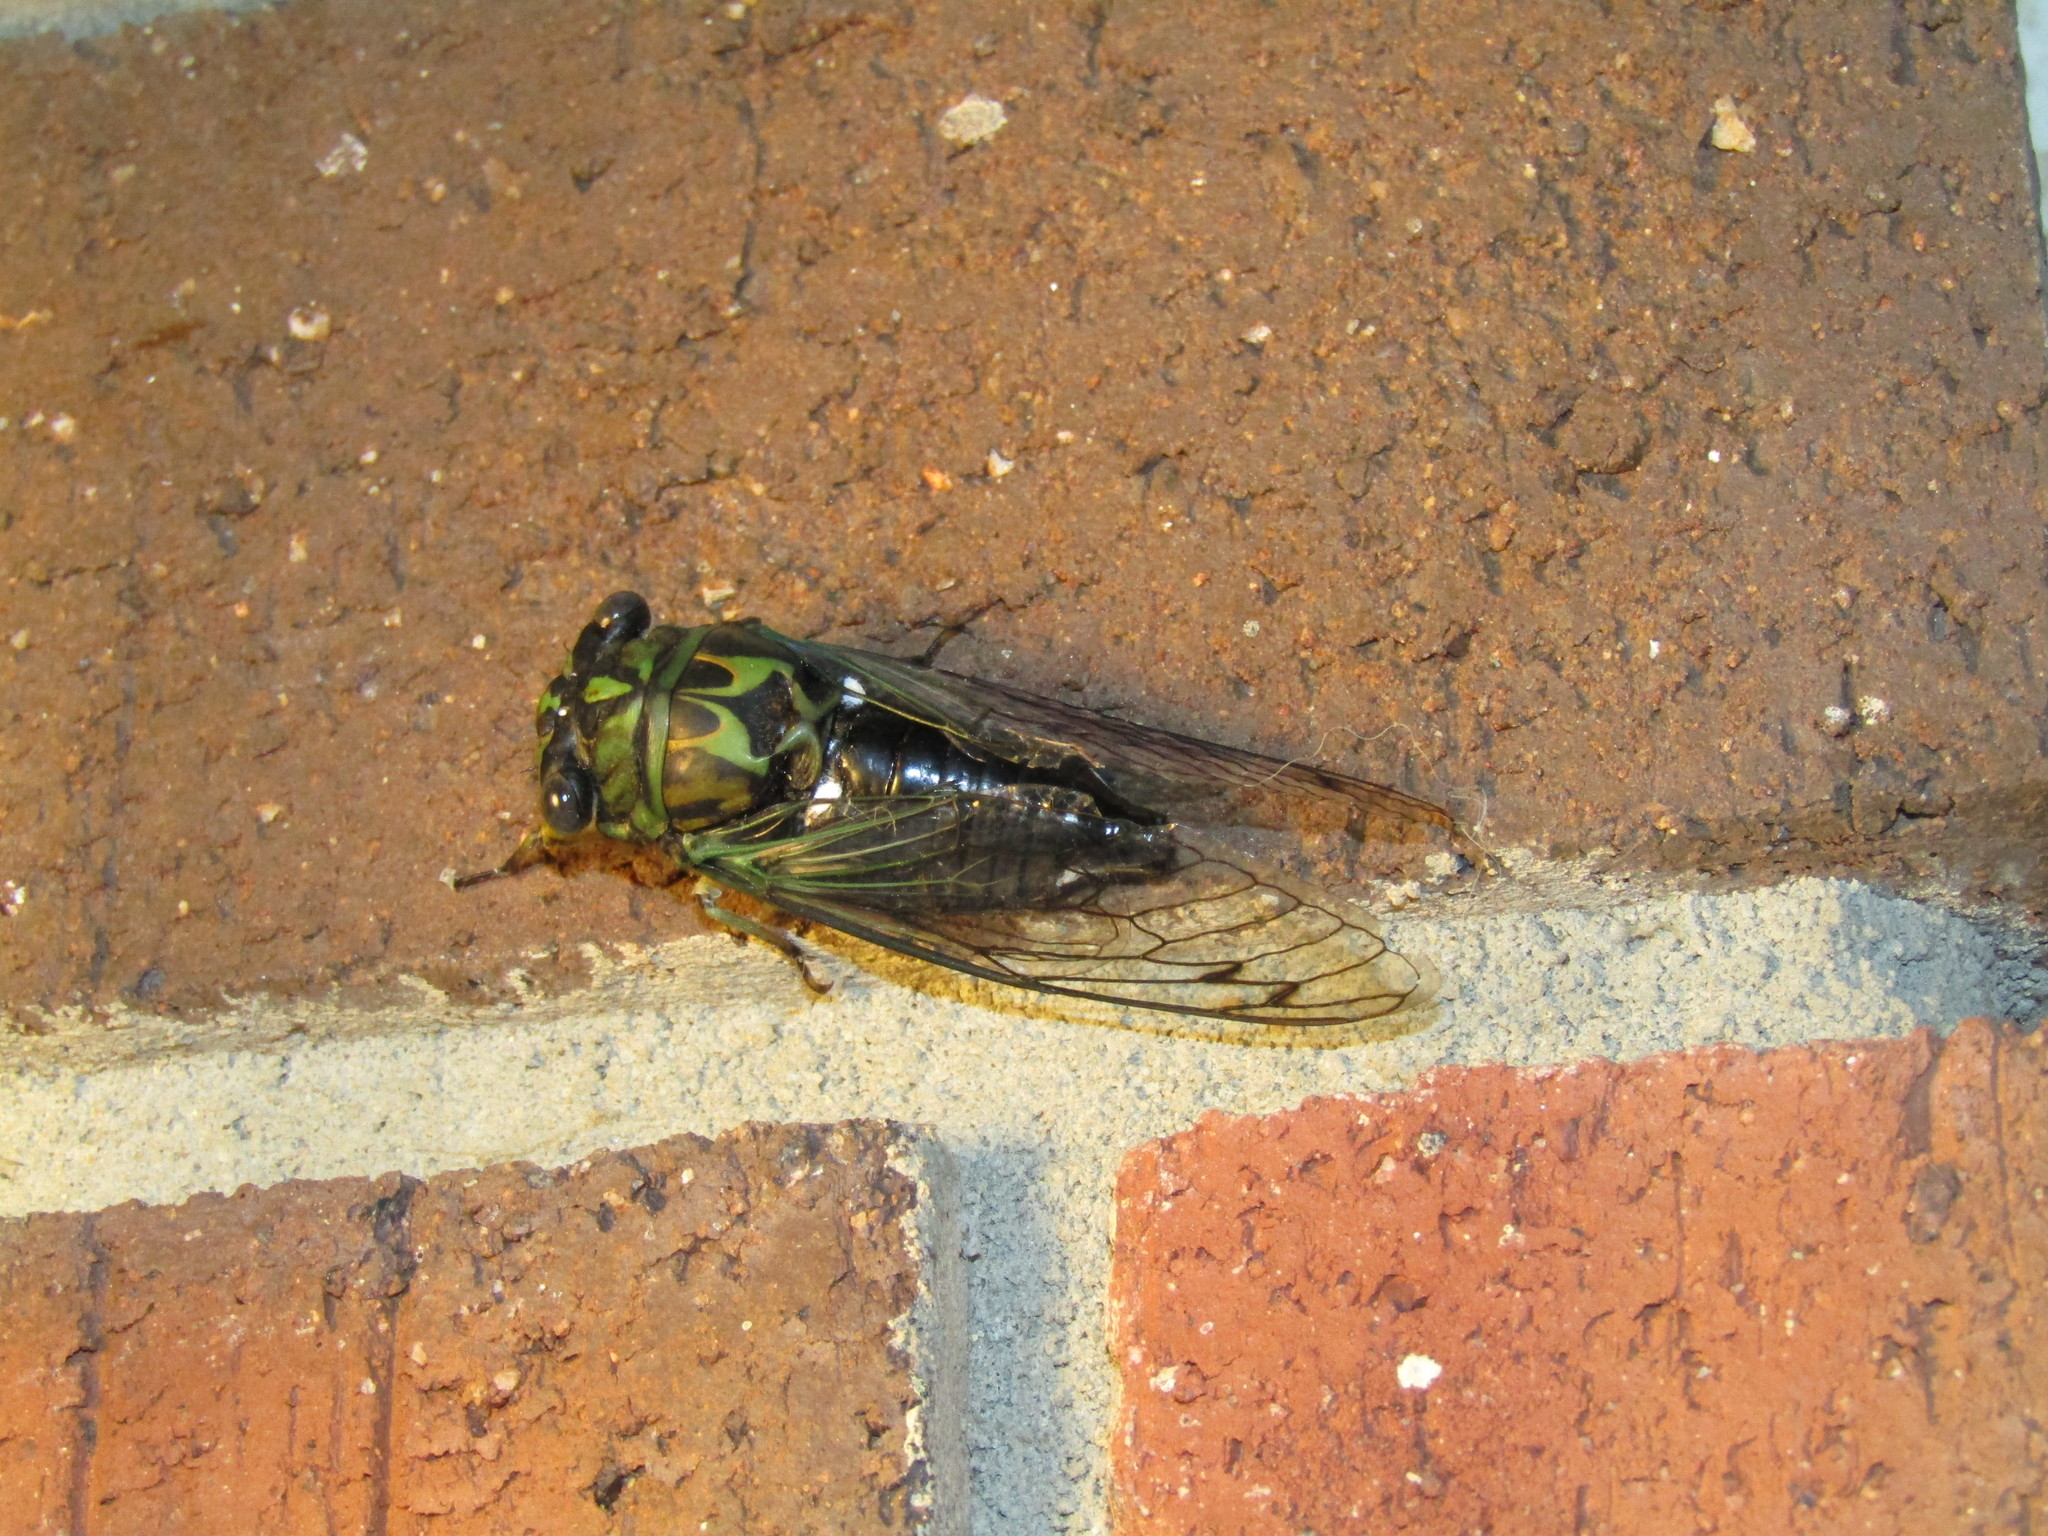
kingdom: Animalia
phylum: Arthropoda
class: Insecta
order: Hemiptera
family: Cicadidae
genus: Neotibicen
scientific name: Neotibicen robinsonianus
